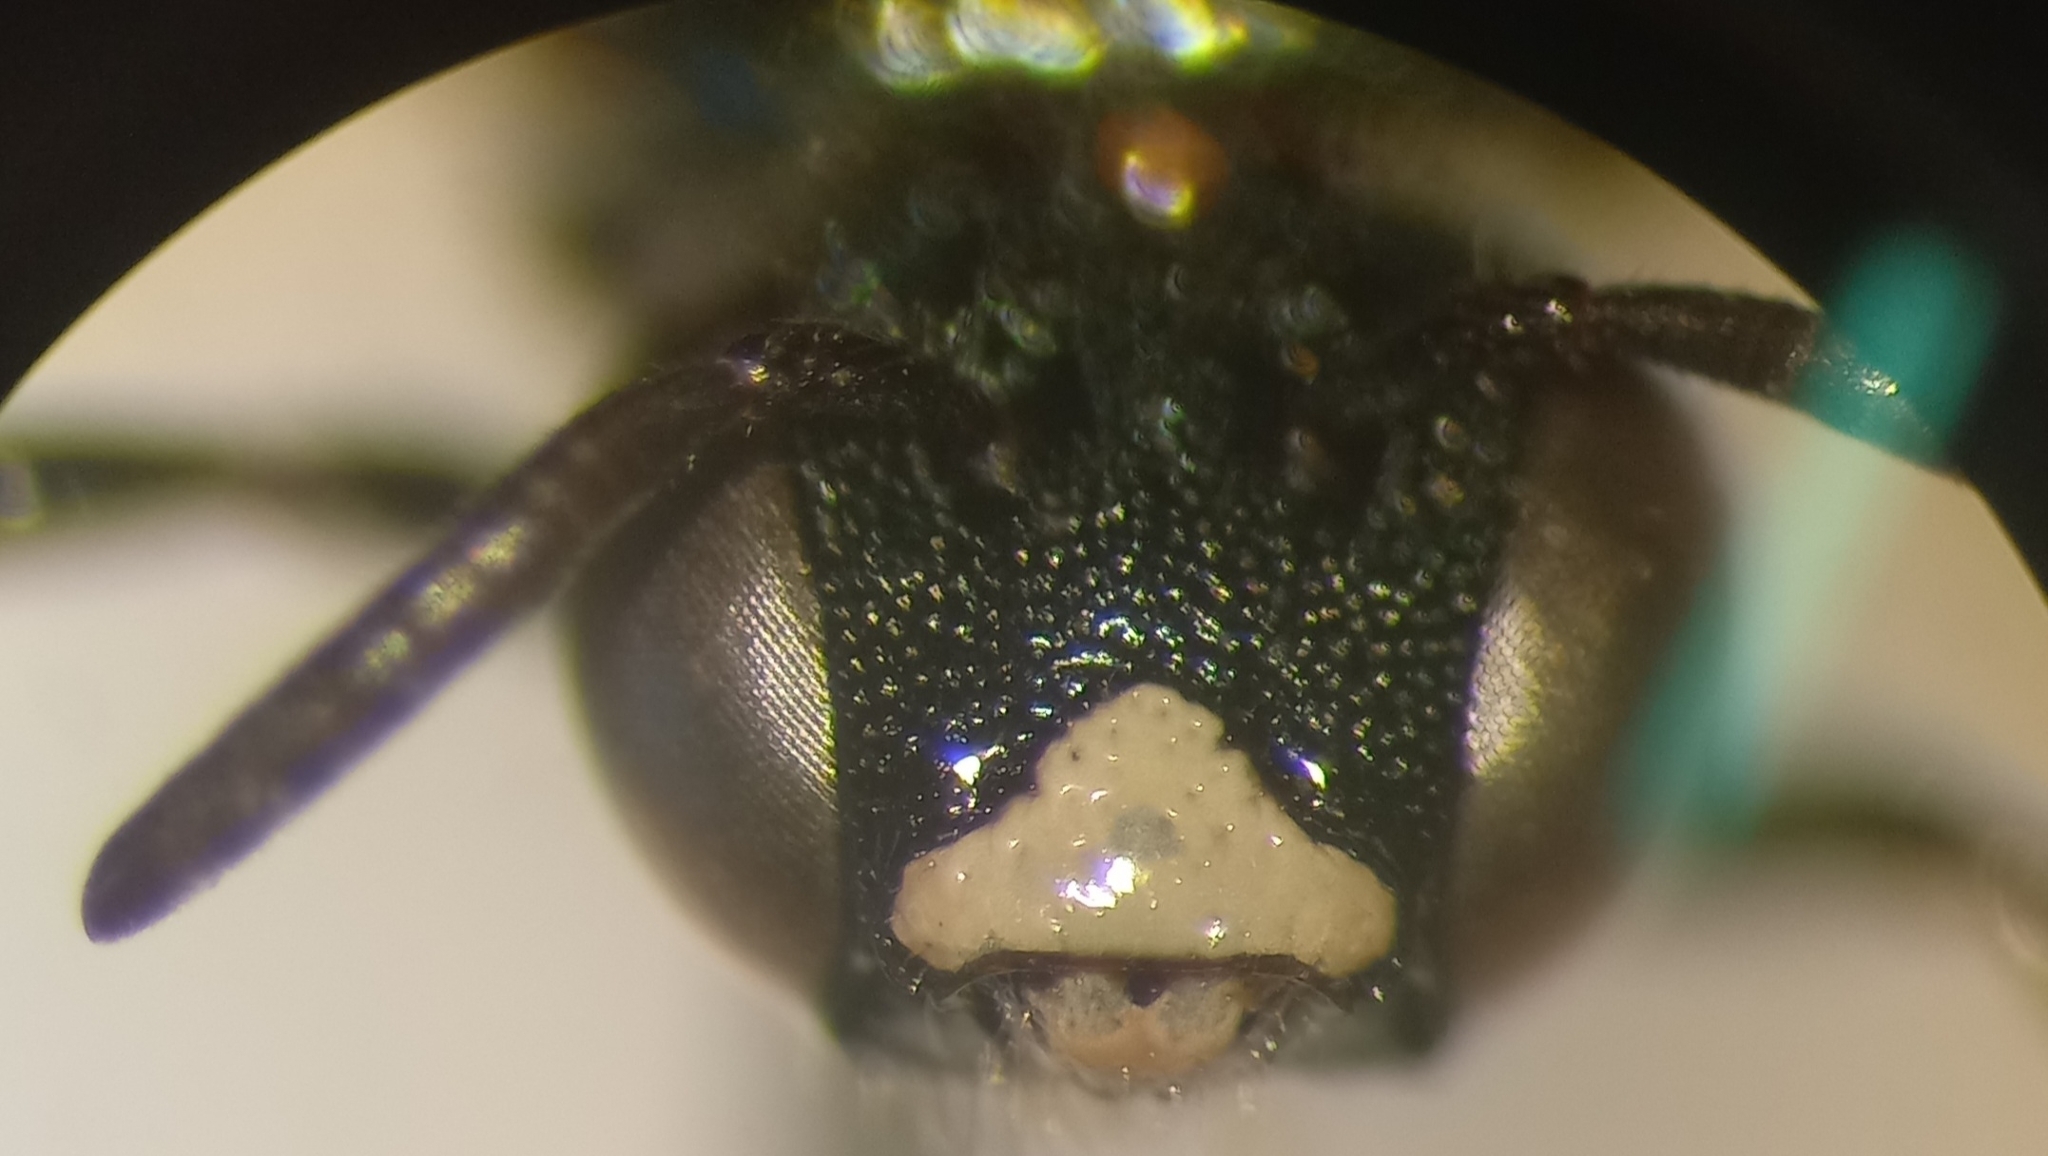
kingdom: Animalia
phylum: Arthropoda
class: Insecta
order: Hymenoptera
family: Apidae
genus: Ceratina
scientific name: Ceratina cyanea
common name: Little blue carpenter bee
